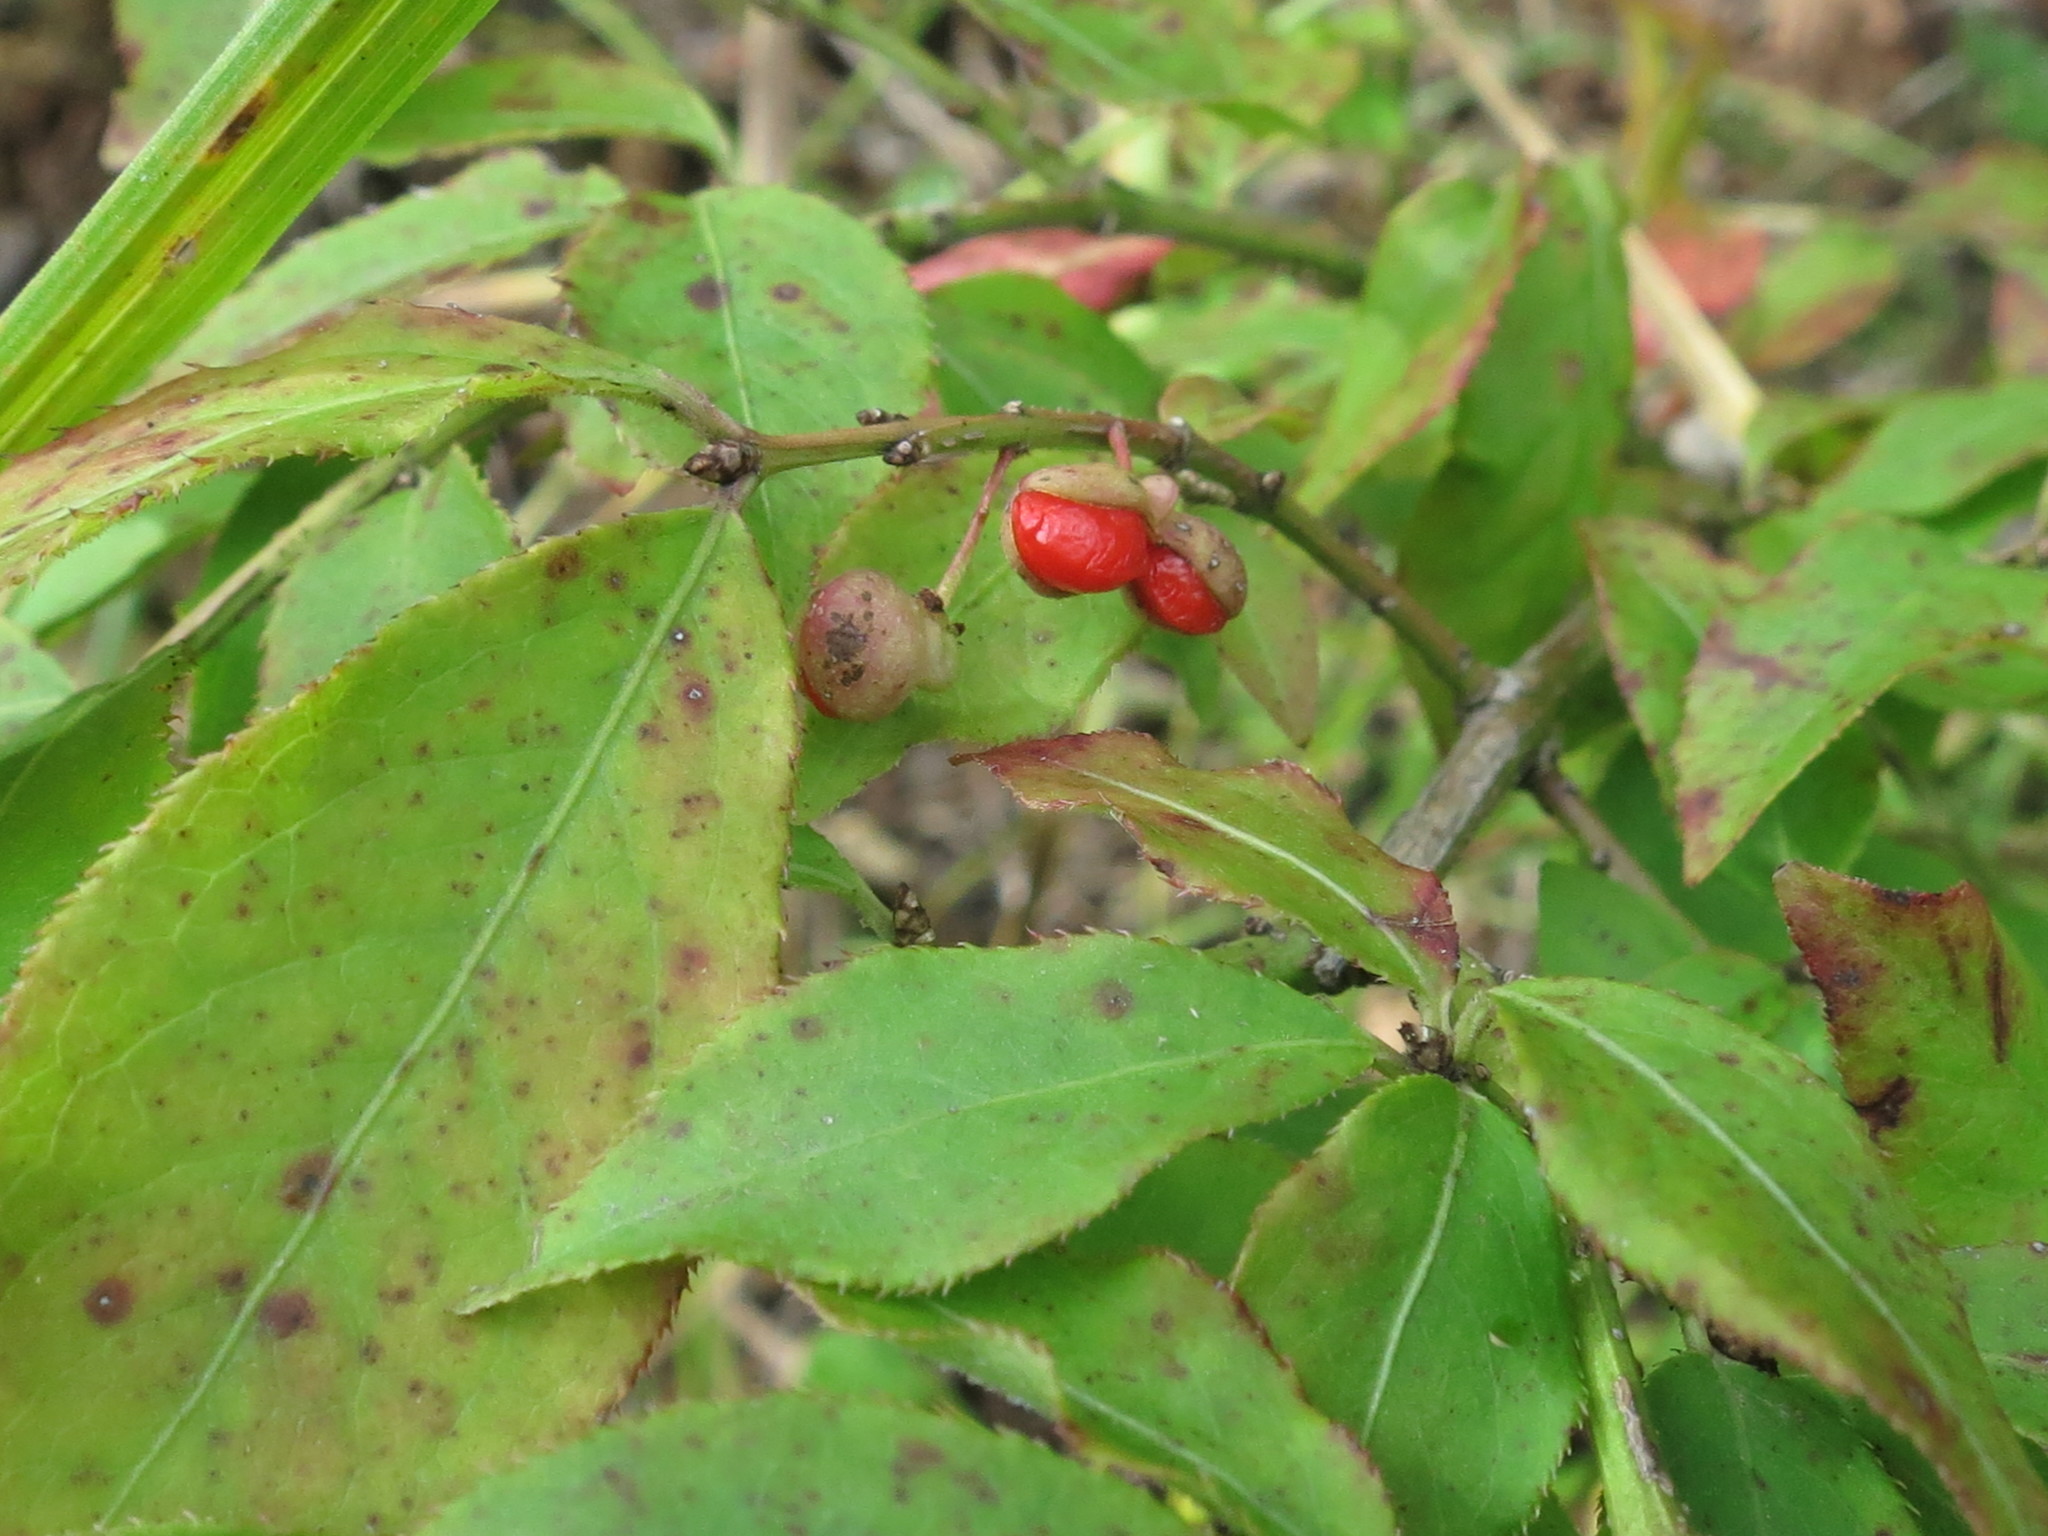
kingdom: Plantae
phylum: Tracheophyta
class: Magnoliopsida
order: Celastrales
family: Celastraceae
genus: Euonymus
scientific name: Euonymus alatus
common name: Winged euonymus
